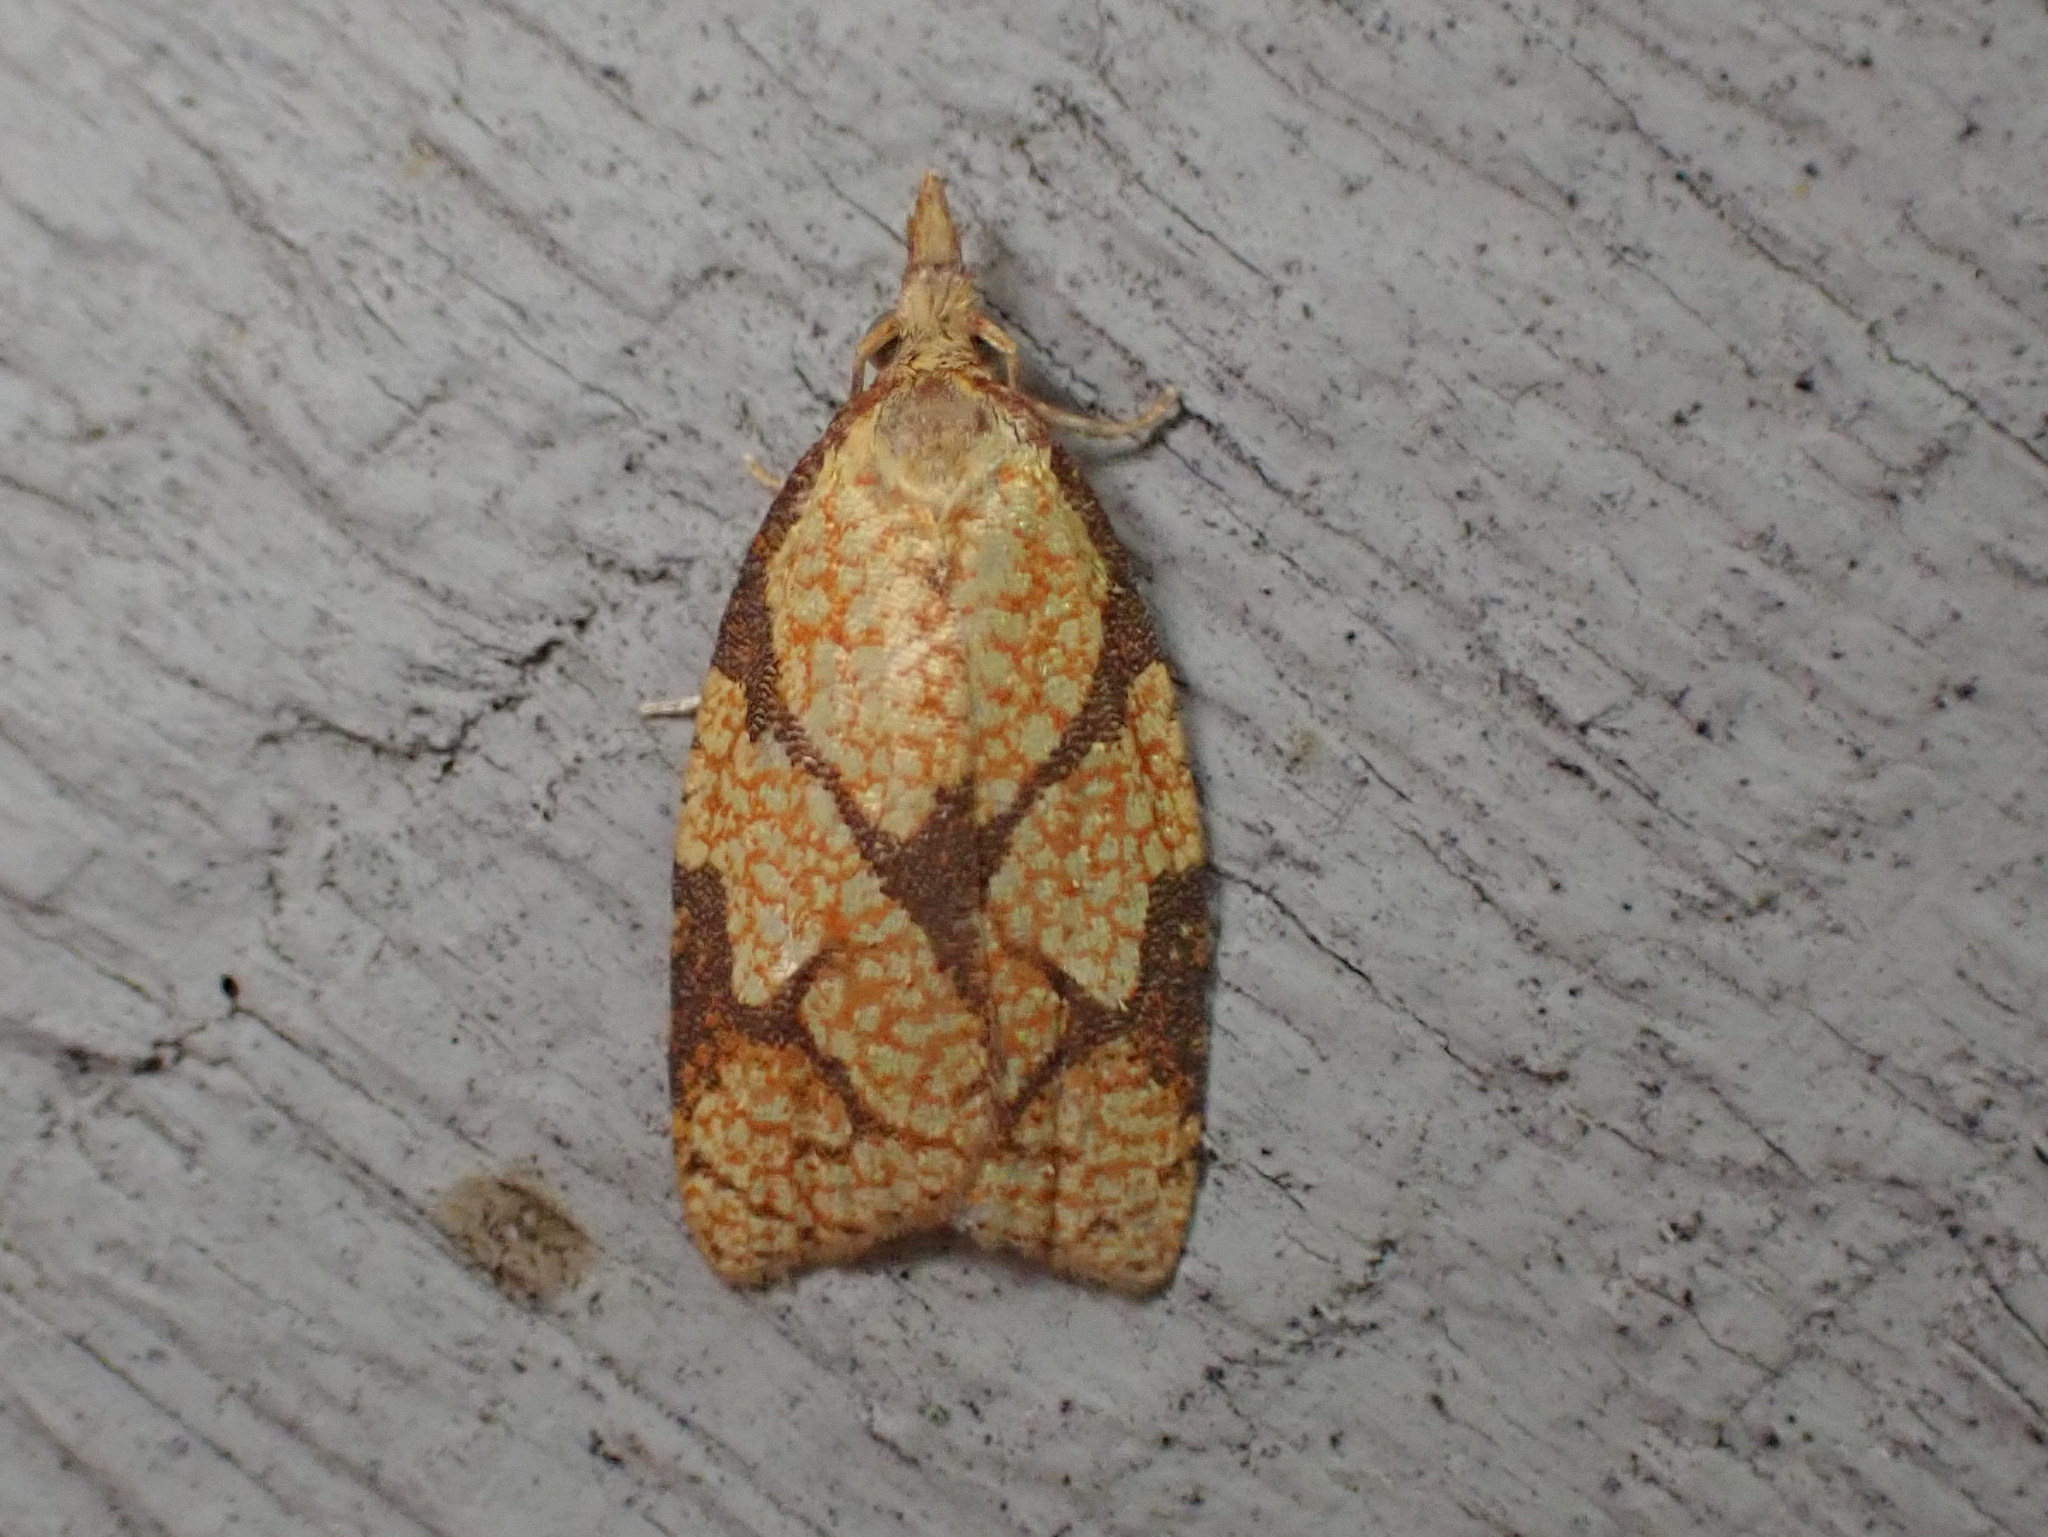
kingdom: Animalia
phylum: Arthropoda
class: Insecta
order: Lepidoptera
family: Tortricidae
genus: Cenopis
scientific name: Cenopis reticulatana
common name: Reticulated fruitworm moth
